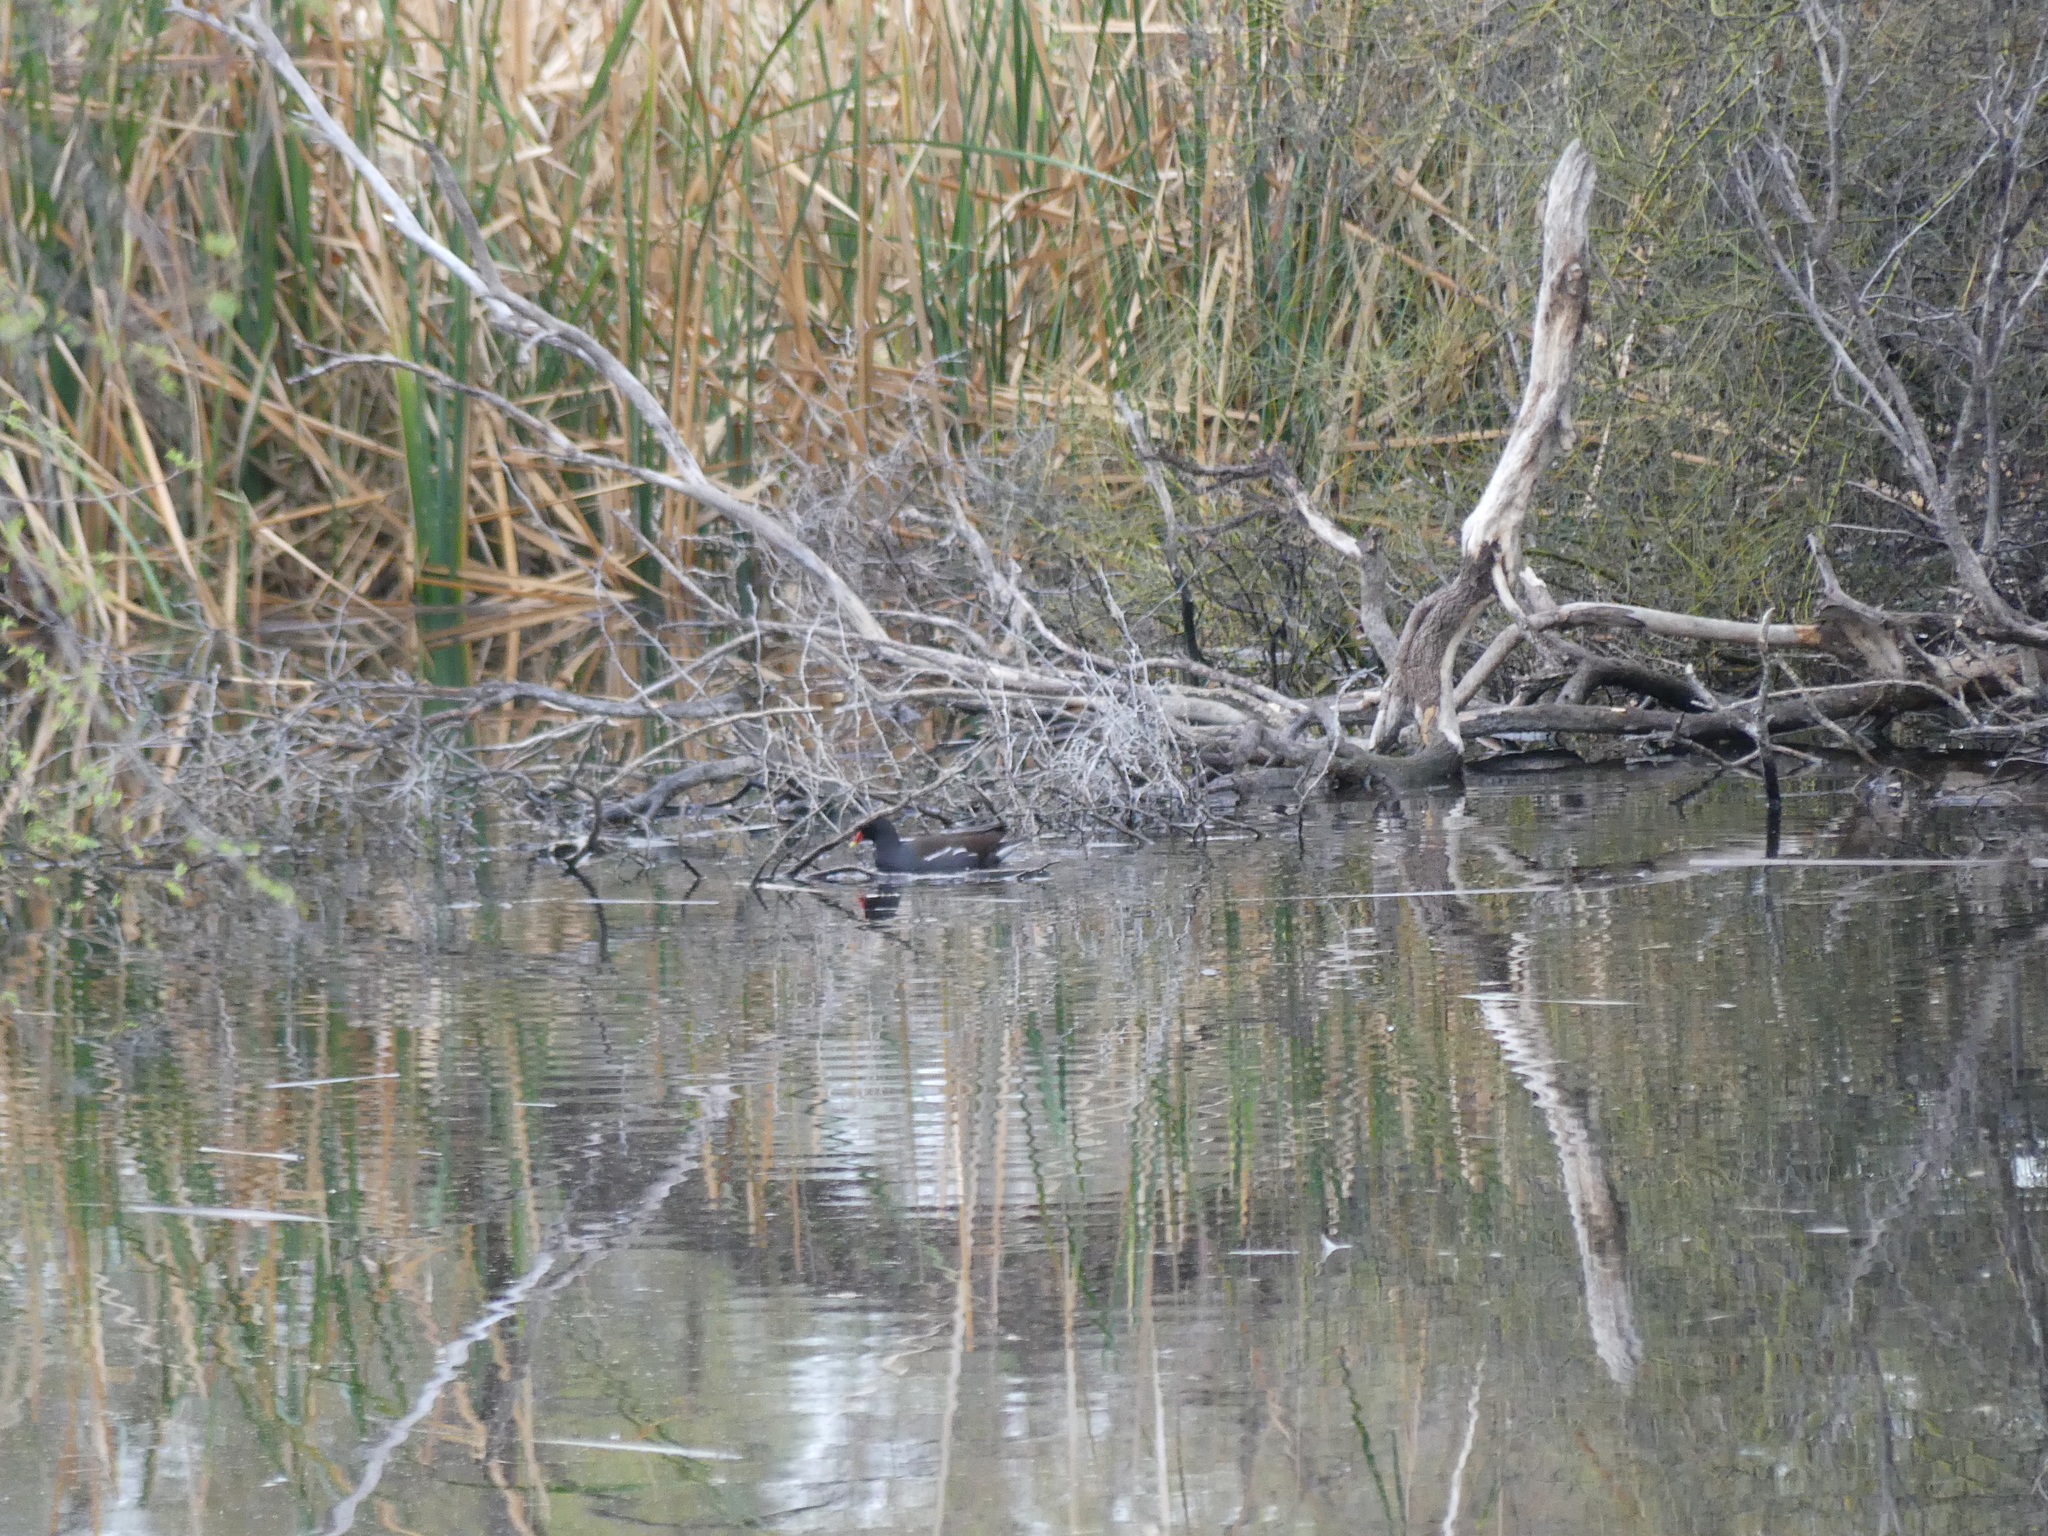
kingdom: Animalia
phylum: Chordata
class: Aves
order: Gruiformes
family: Rallidae
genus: Gallinula
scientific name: Gallinula chloropus
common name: Common moorhen
